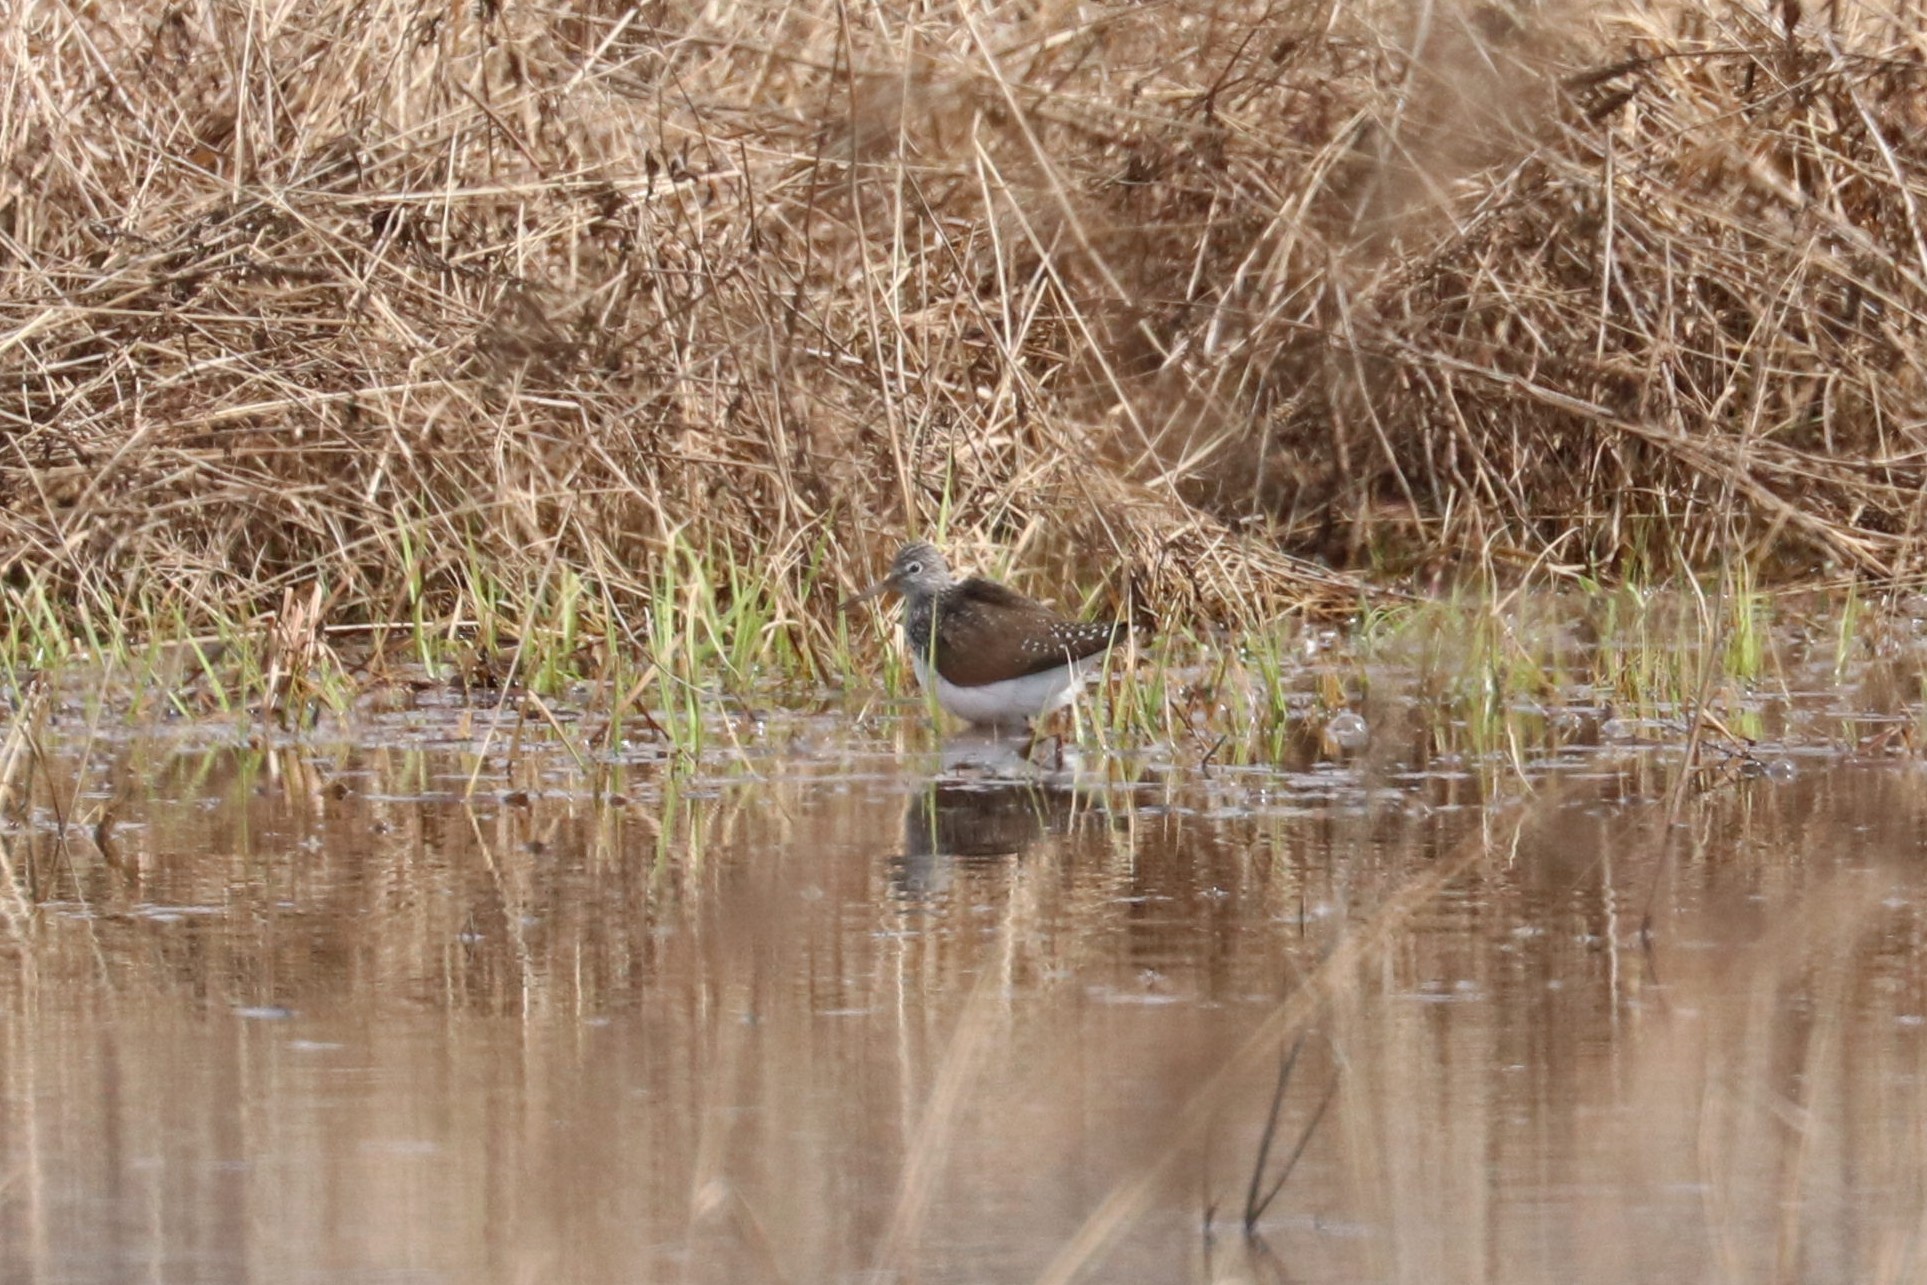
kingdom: Animalia
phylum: Chordata
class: Aves
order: Charadriiformes
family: Scolopacidae
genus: Tringa
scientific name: Tringa ochropus
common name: Green sandpiper
